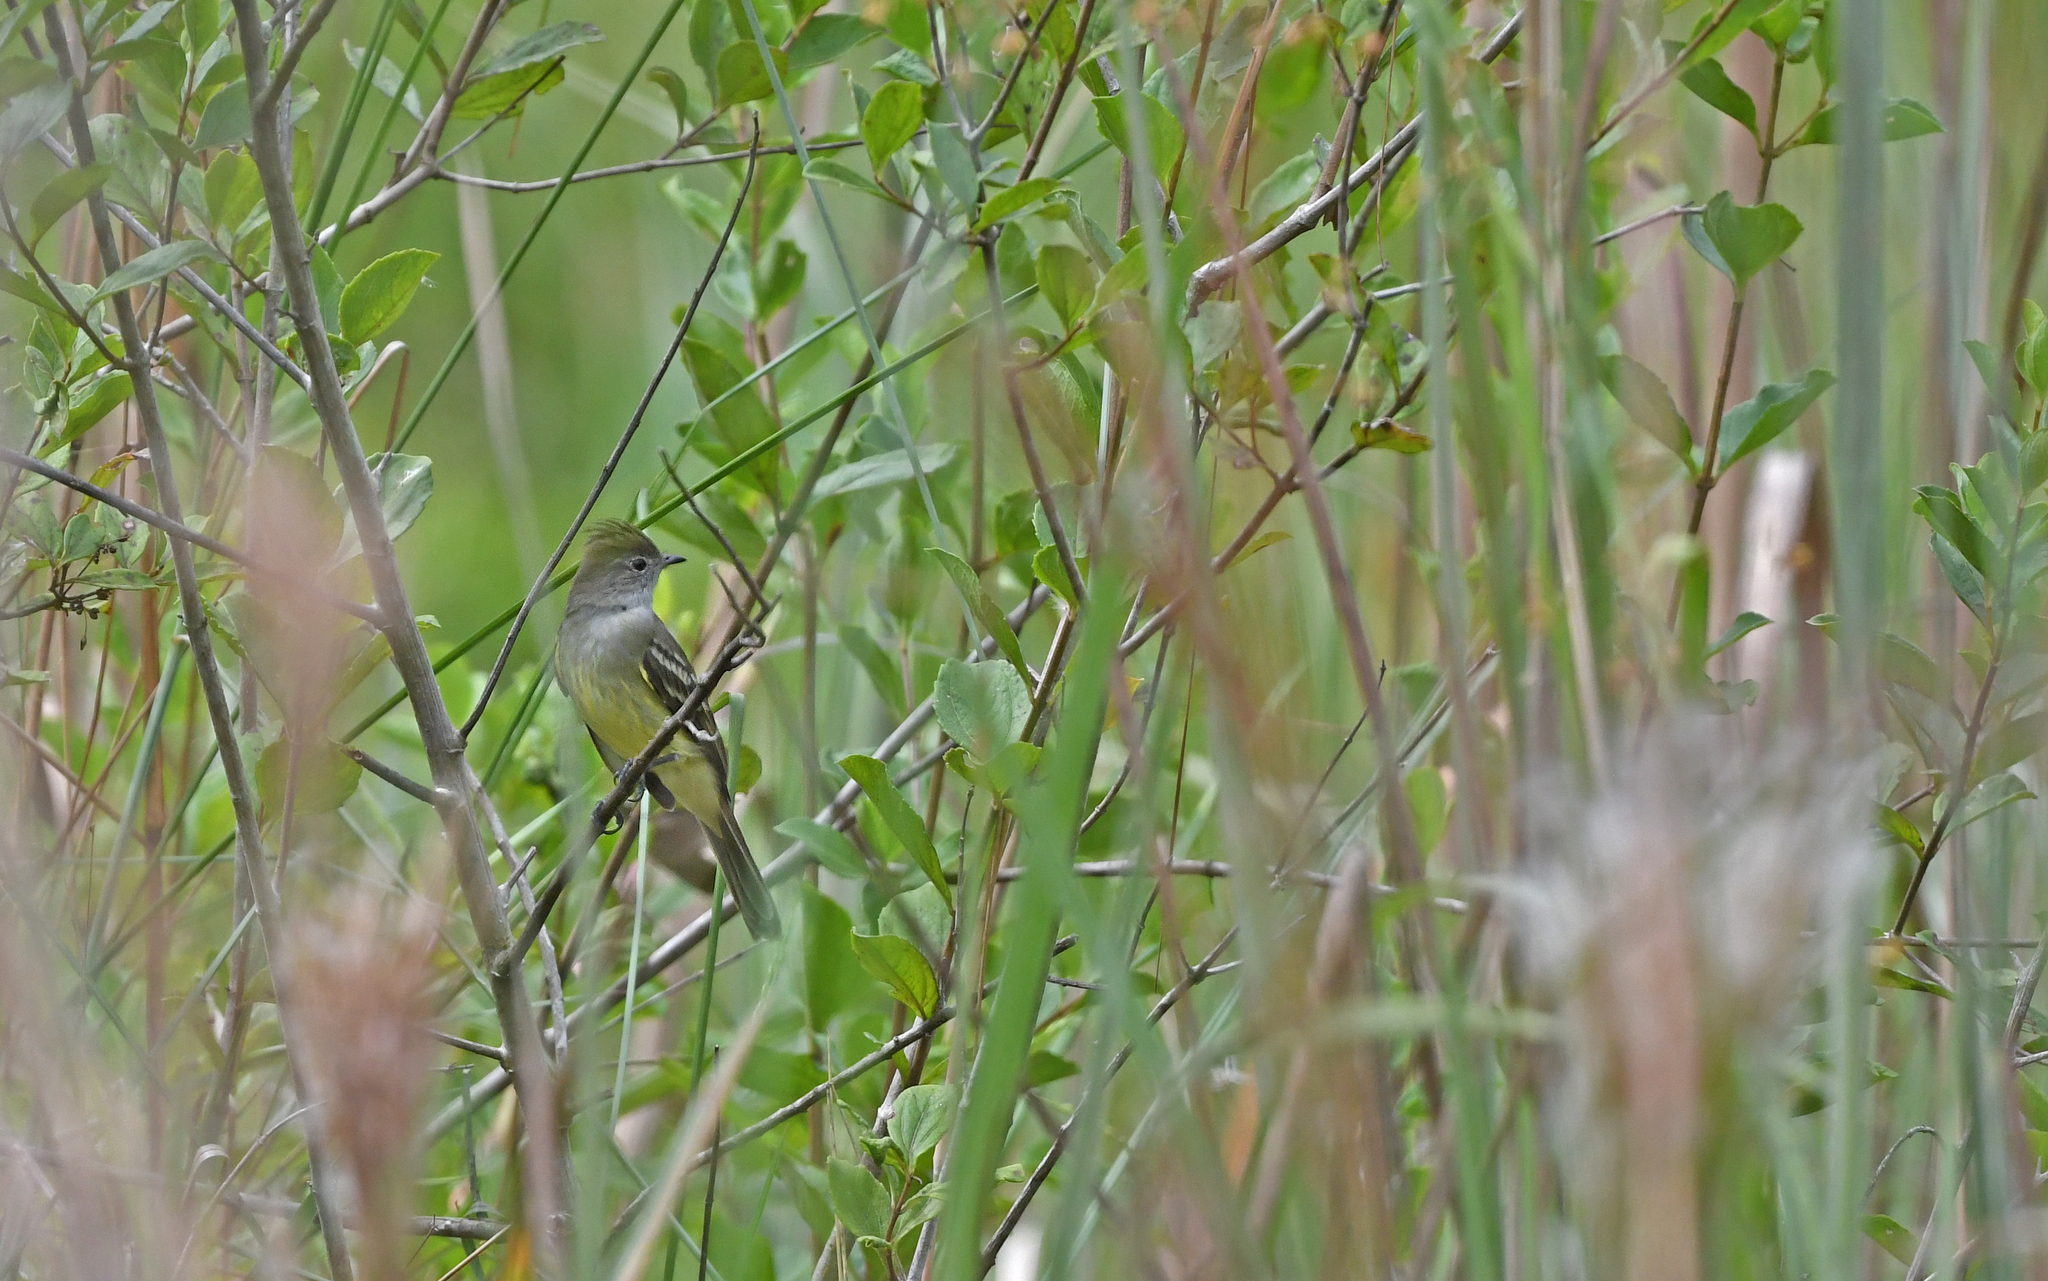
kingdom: Animalia
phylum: Chordata
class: Aves
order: Passeriformes
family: Tyrannidae
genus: Elaenia
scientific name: Elaenia flavogaster
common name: Yellow-bellied elaenia
